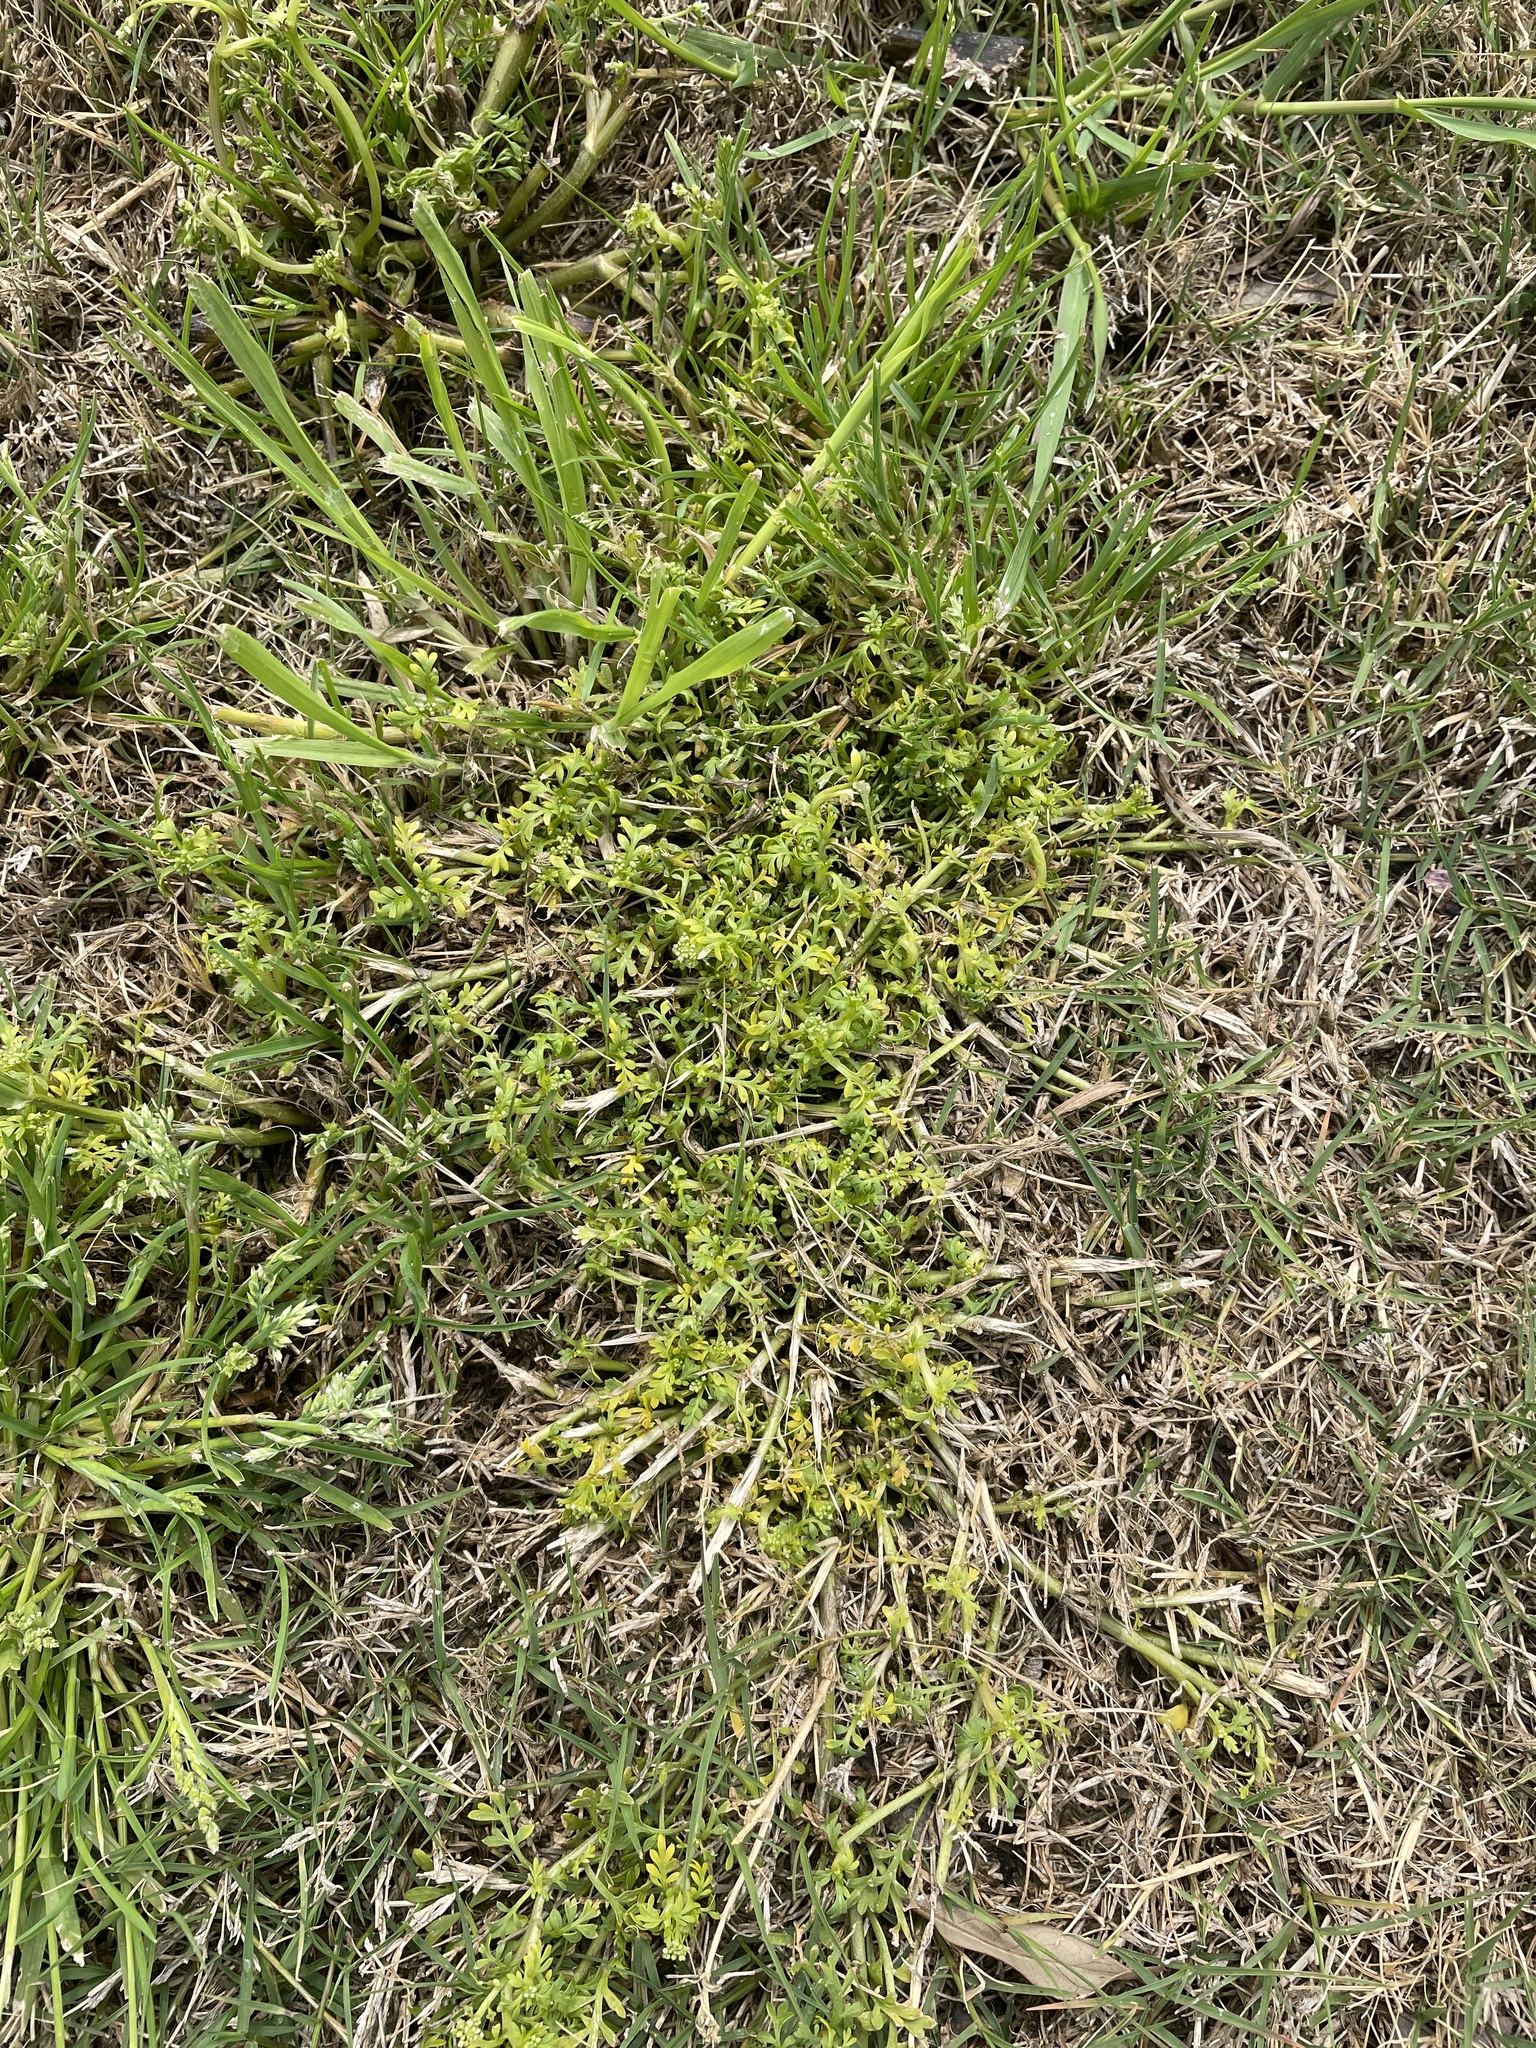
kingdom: Plantae
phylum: Tracheophyta
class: Magnoliopsida
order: Brassicales
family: Brassicaceae
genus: Lepidium
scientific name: Lepidium didymum
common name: Lesser swinecress
